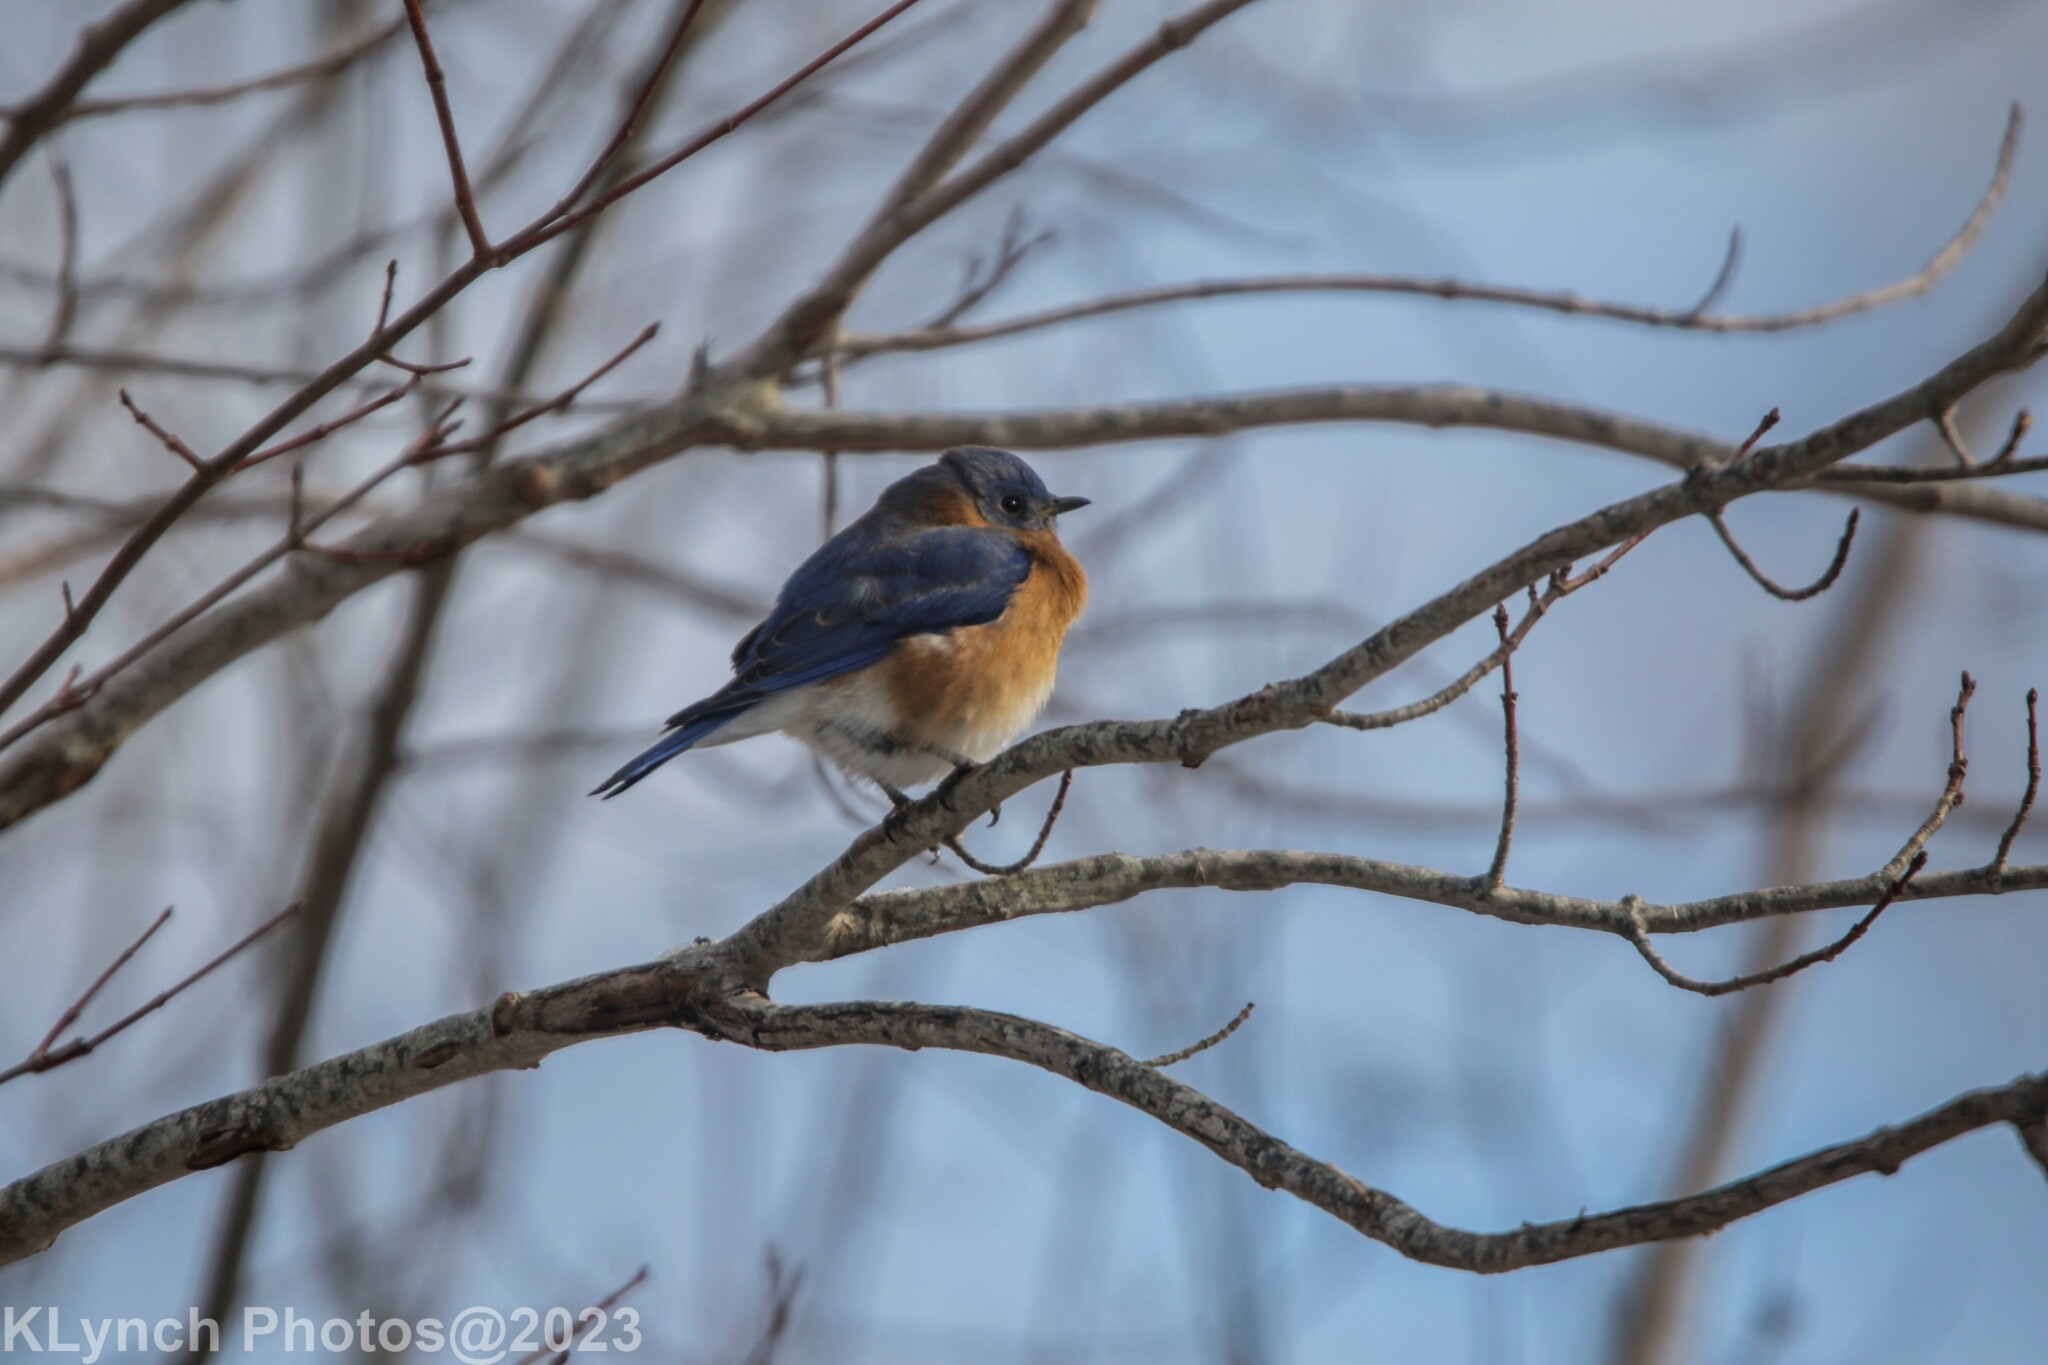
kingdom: Animalia
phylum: Chordata
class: Aves
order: Passeriformes
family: Turdidae
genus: Sialia
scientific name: Sialia sialis
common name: Eastern bluebird
